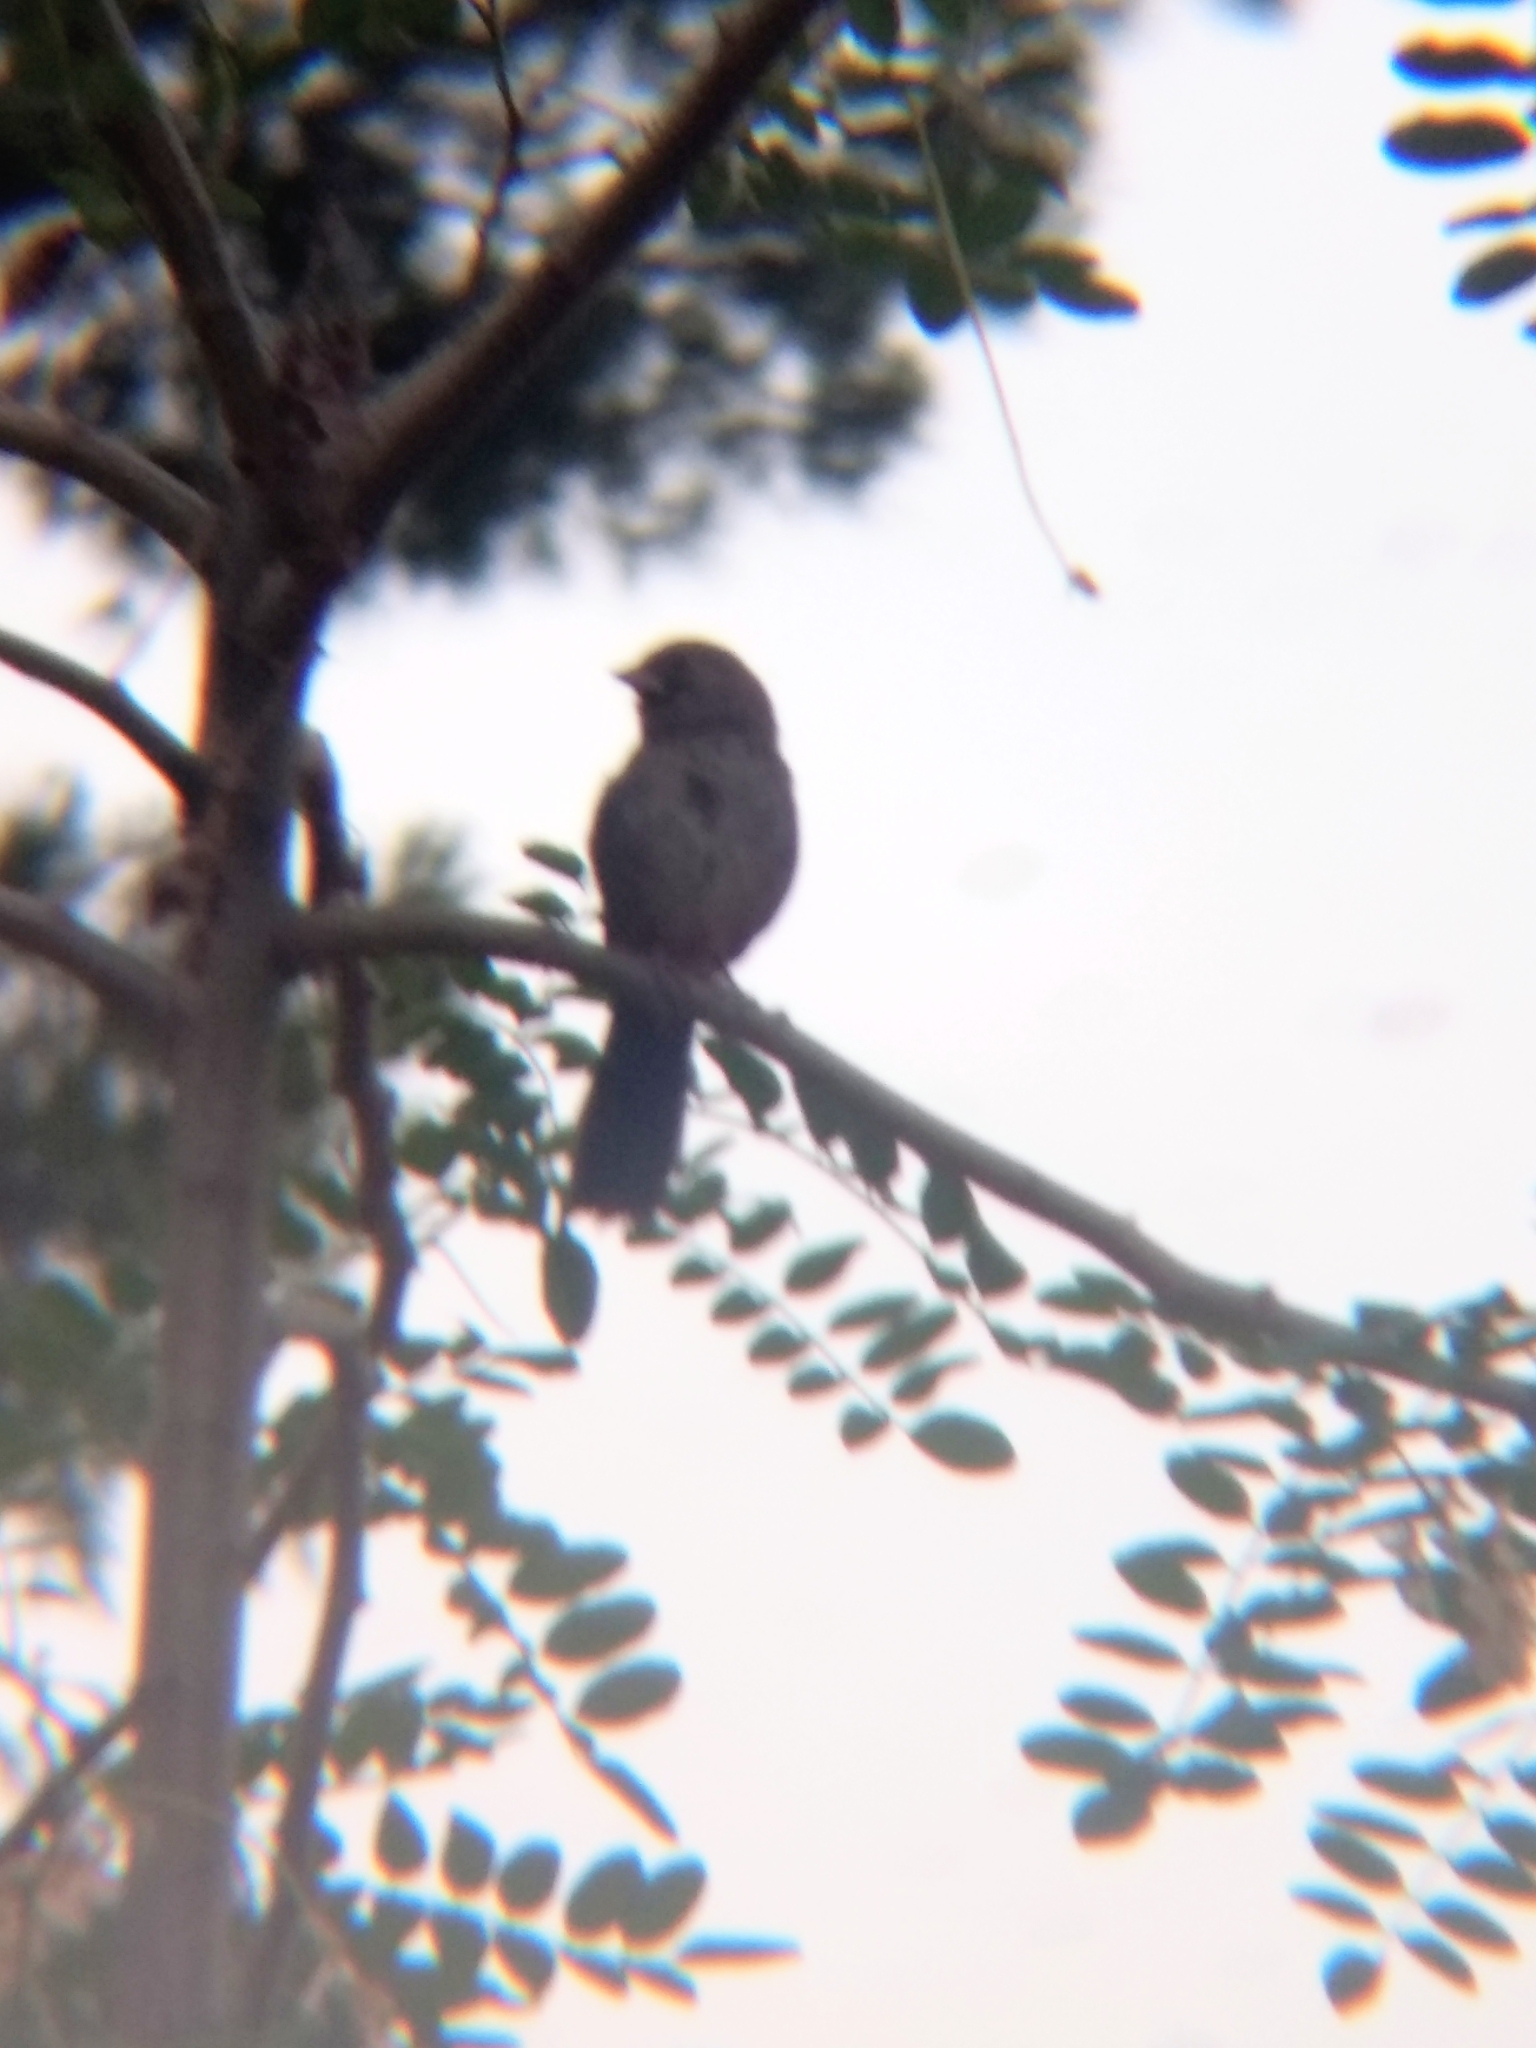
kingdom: Animalia
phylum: Chordata
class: Aves
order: Passeriformes
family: Passerellidae
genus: Melozone
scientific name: Melozone crissalis
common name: California towhee
